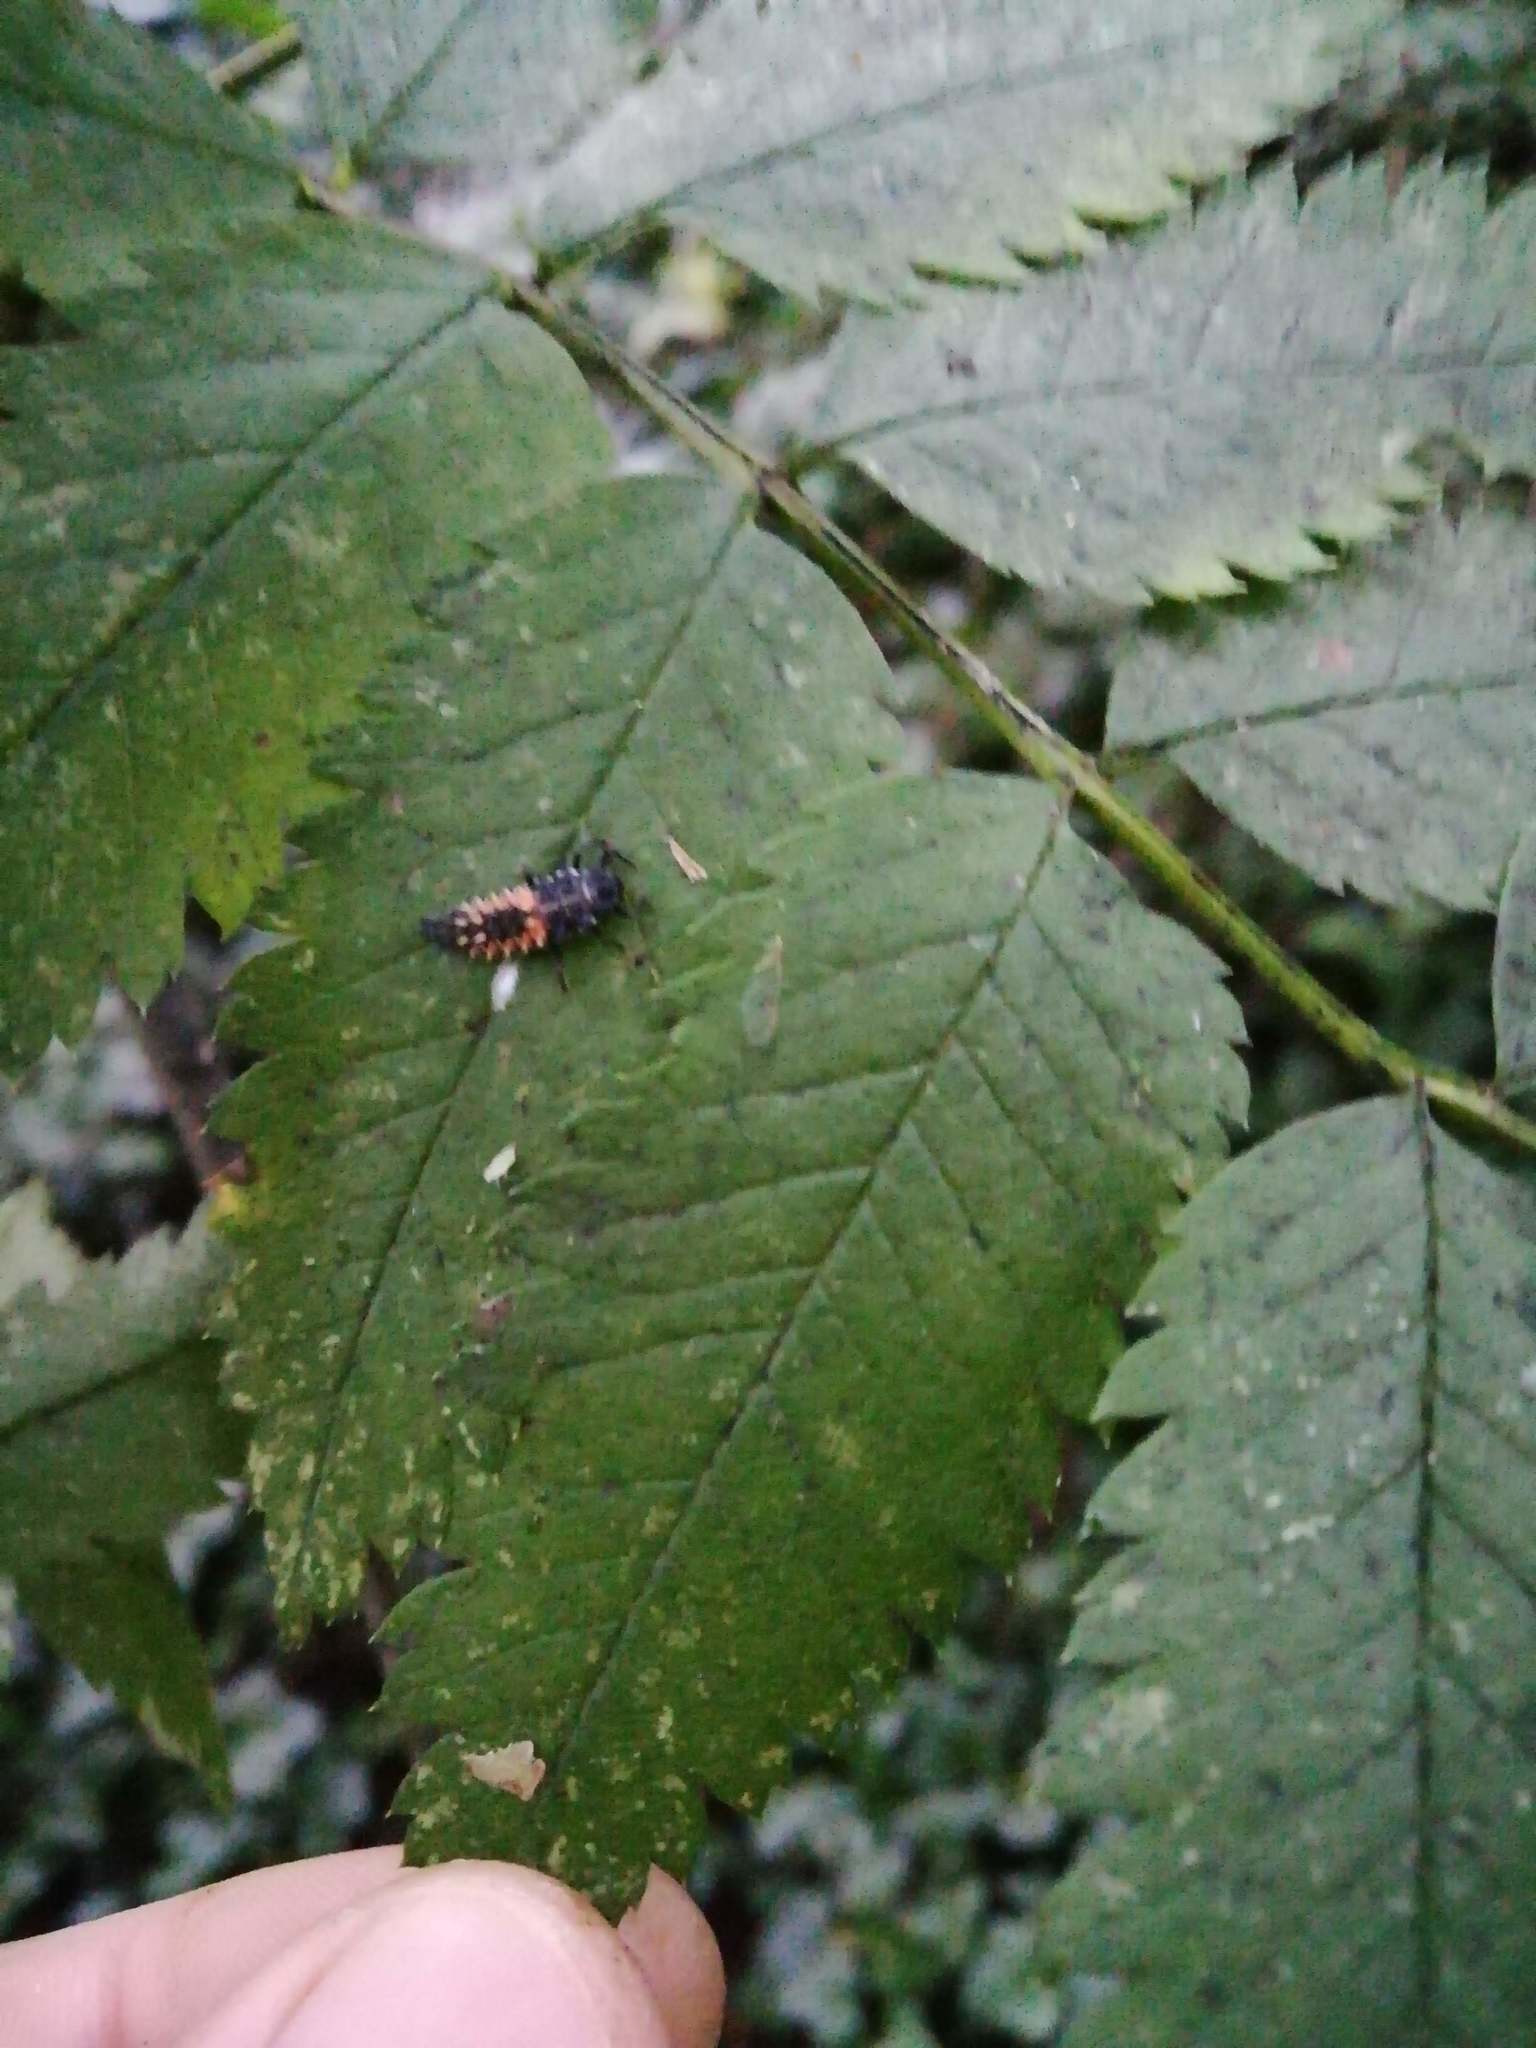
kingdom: Animalia
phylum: Arthropoda
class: Insecta
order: Coleoptera
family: Coccinellidae
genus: Harmonia
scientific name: Harmonia axyridis
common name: Harlequin ladybird
